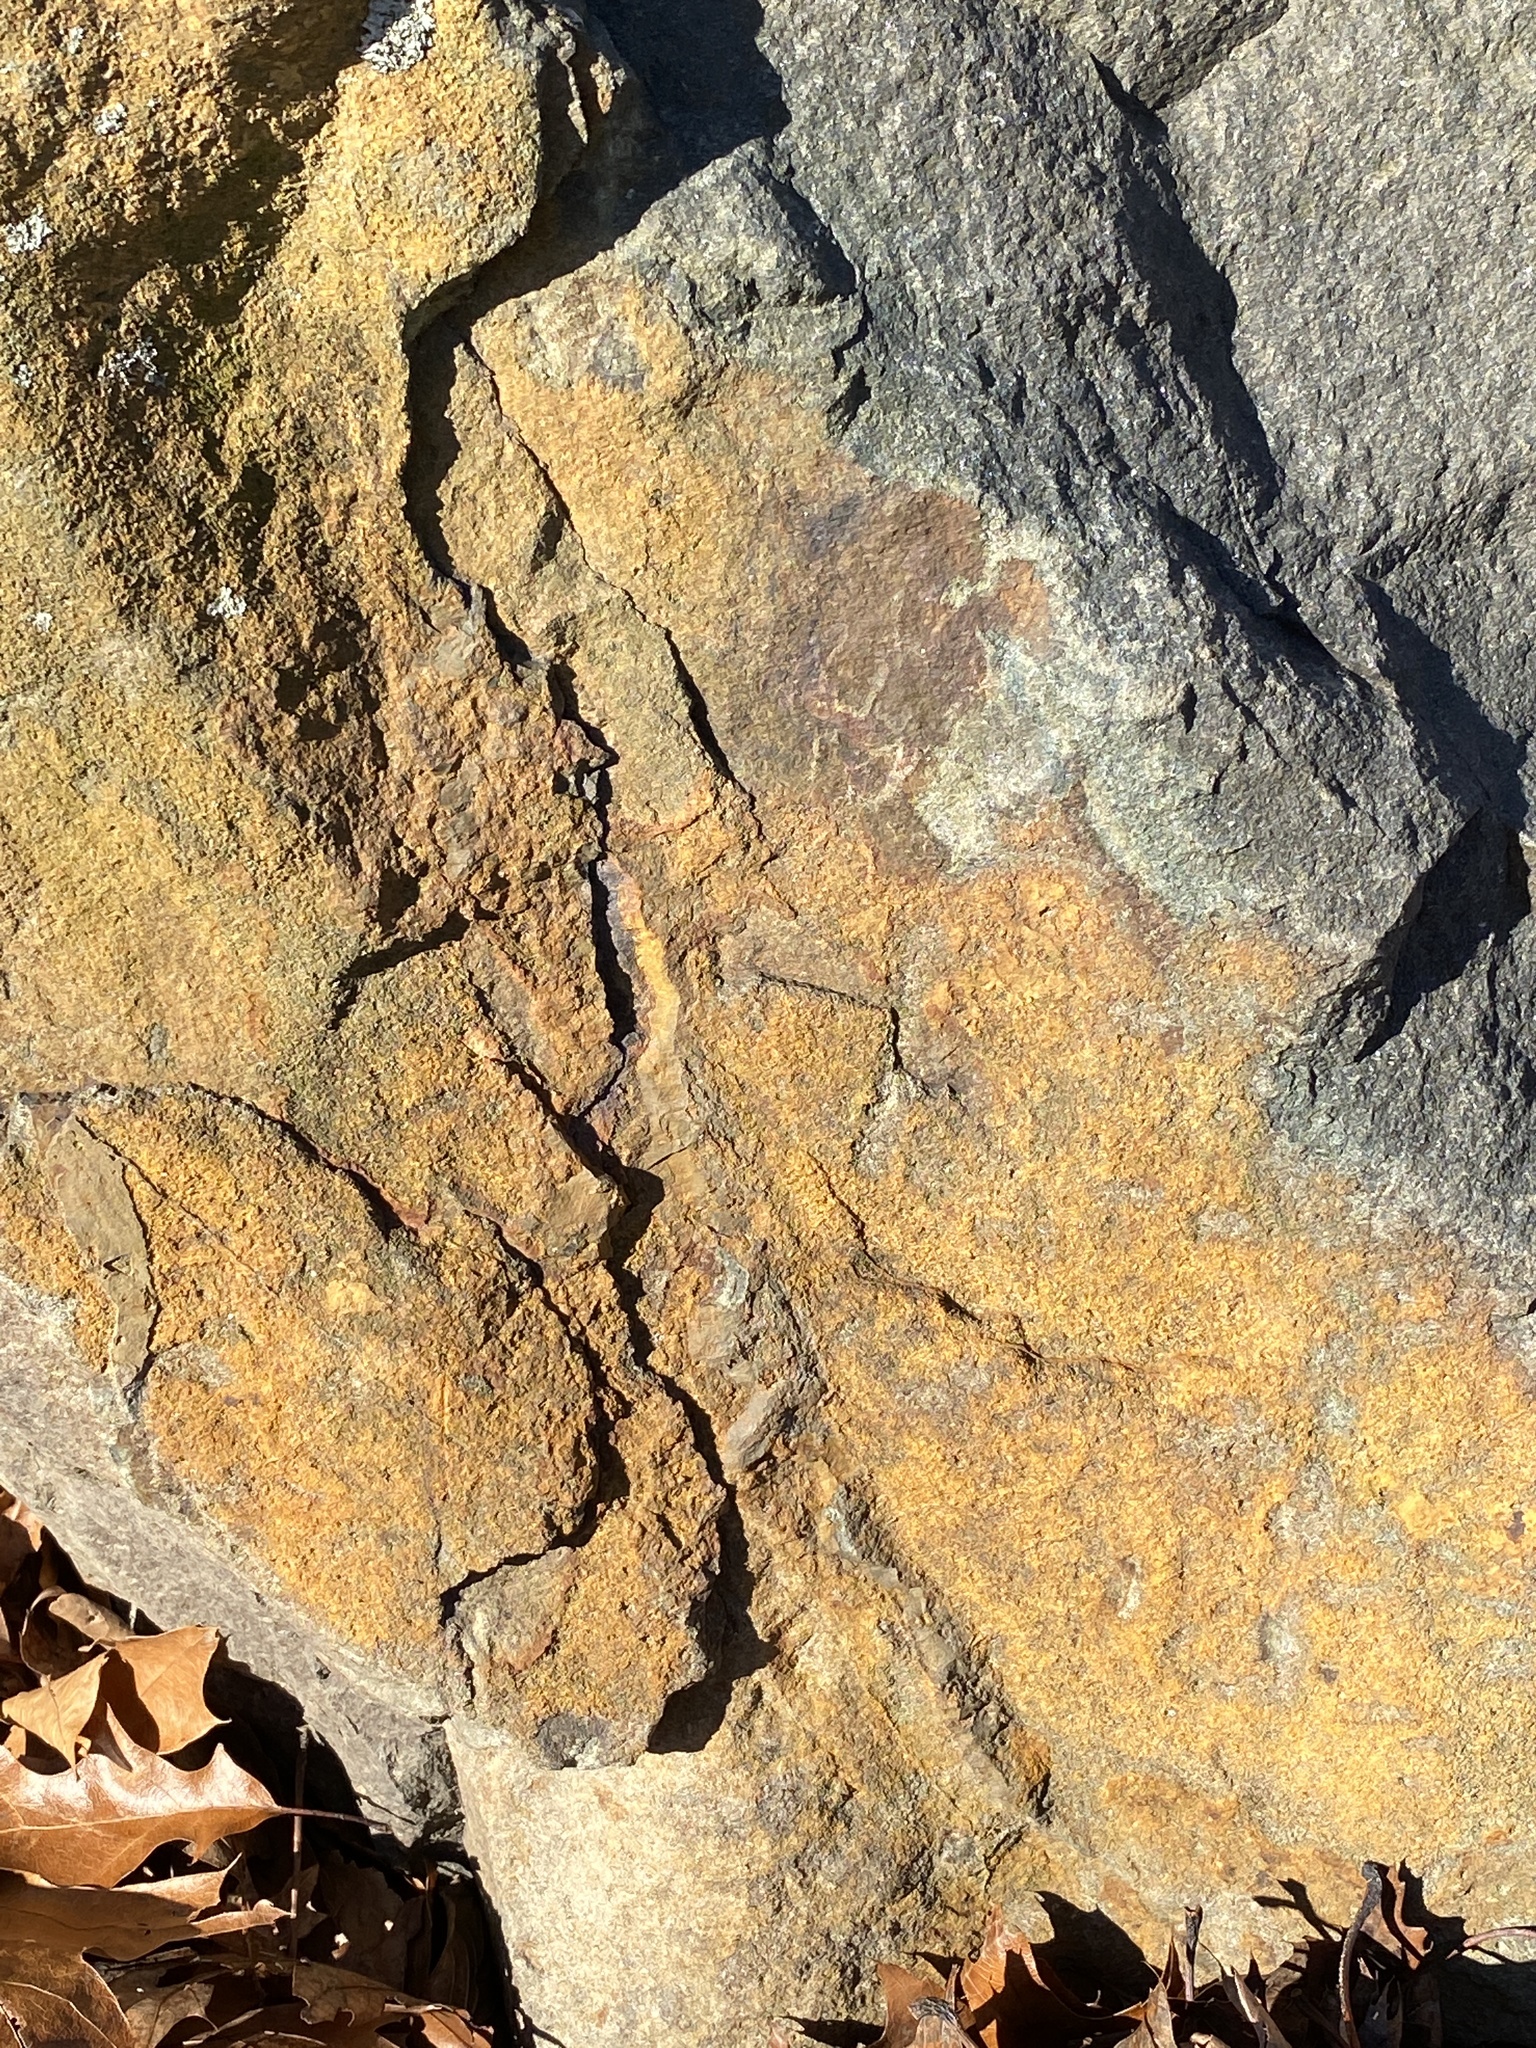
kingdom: Fungi
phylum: Ascomycota
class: Lecanoromycetes
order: Teloschistales
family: Teloschistaceae
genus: Xanthocarpia
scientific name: Xanthocarpia feracissima
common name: Sidewalk firedot
